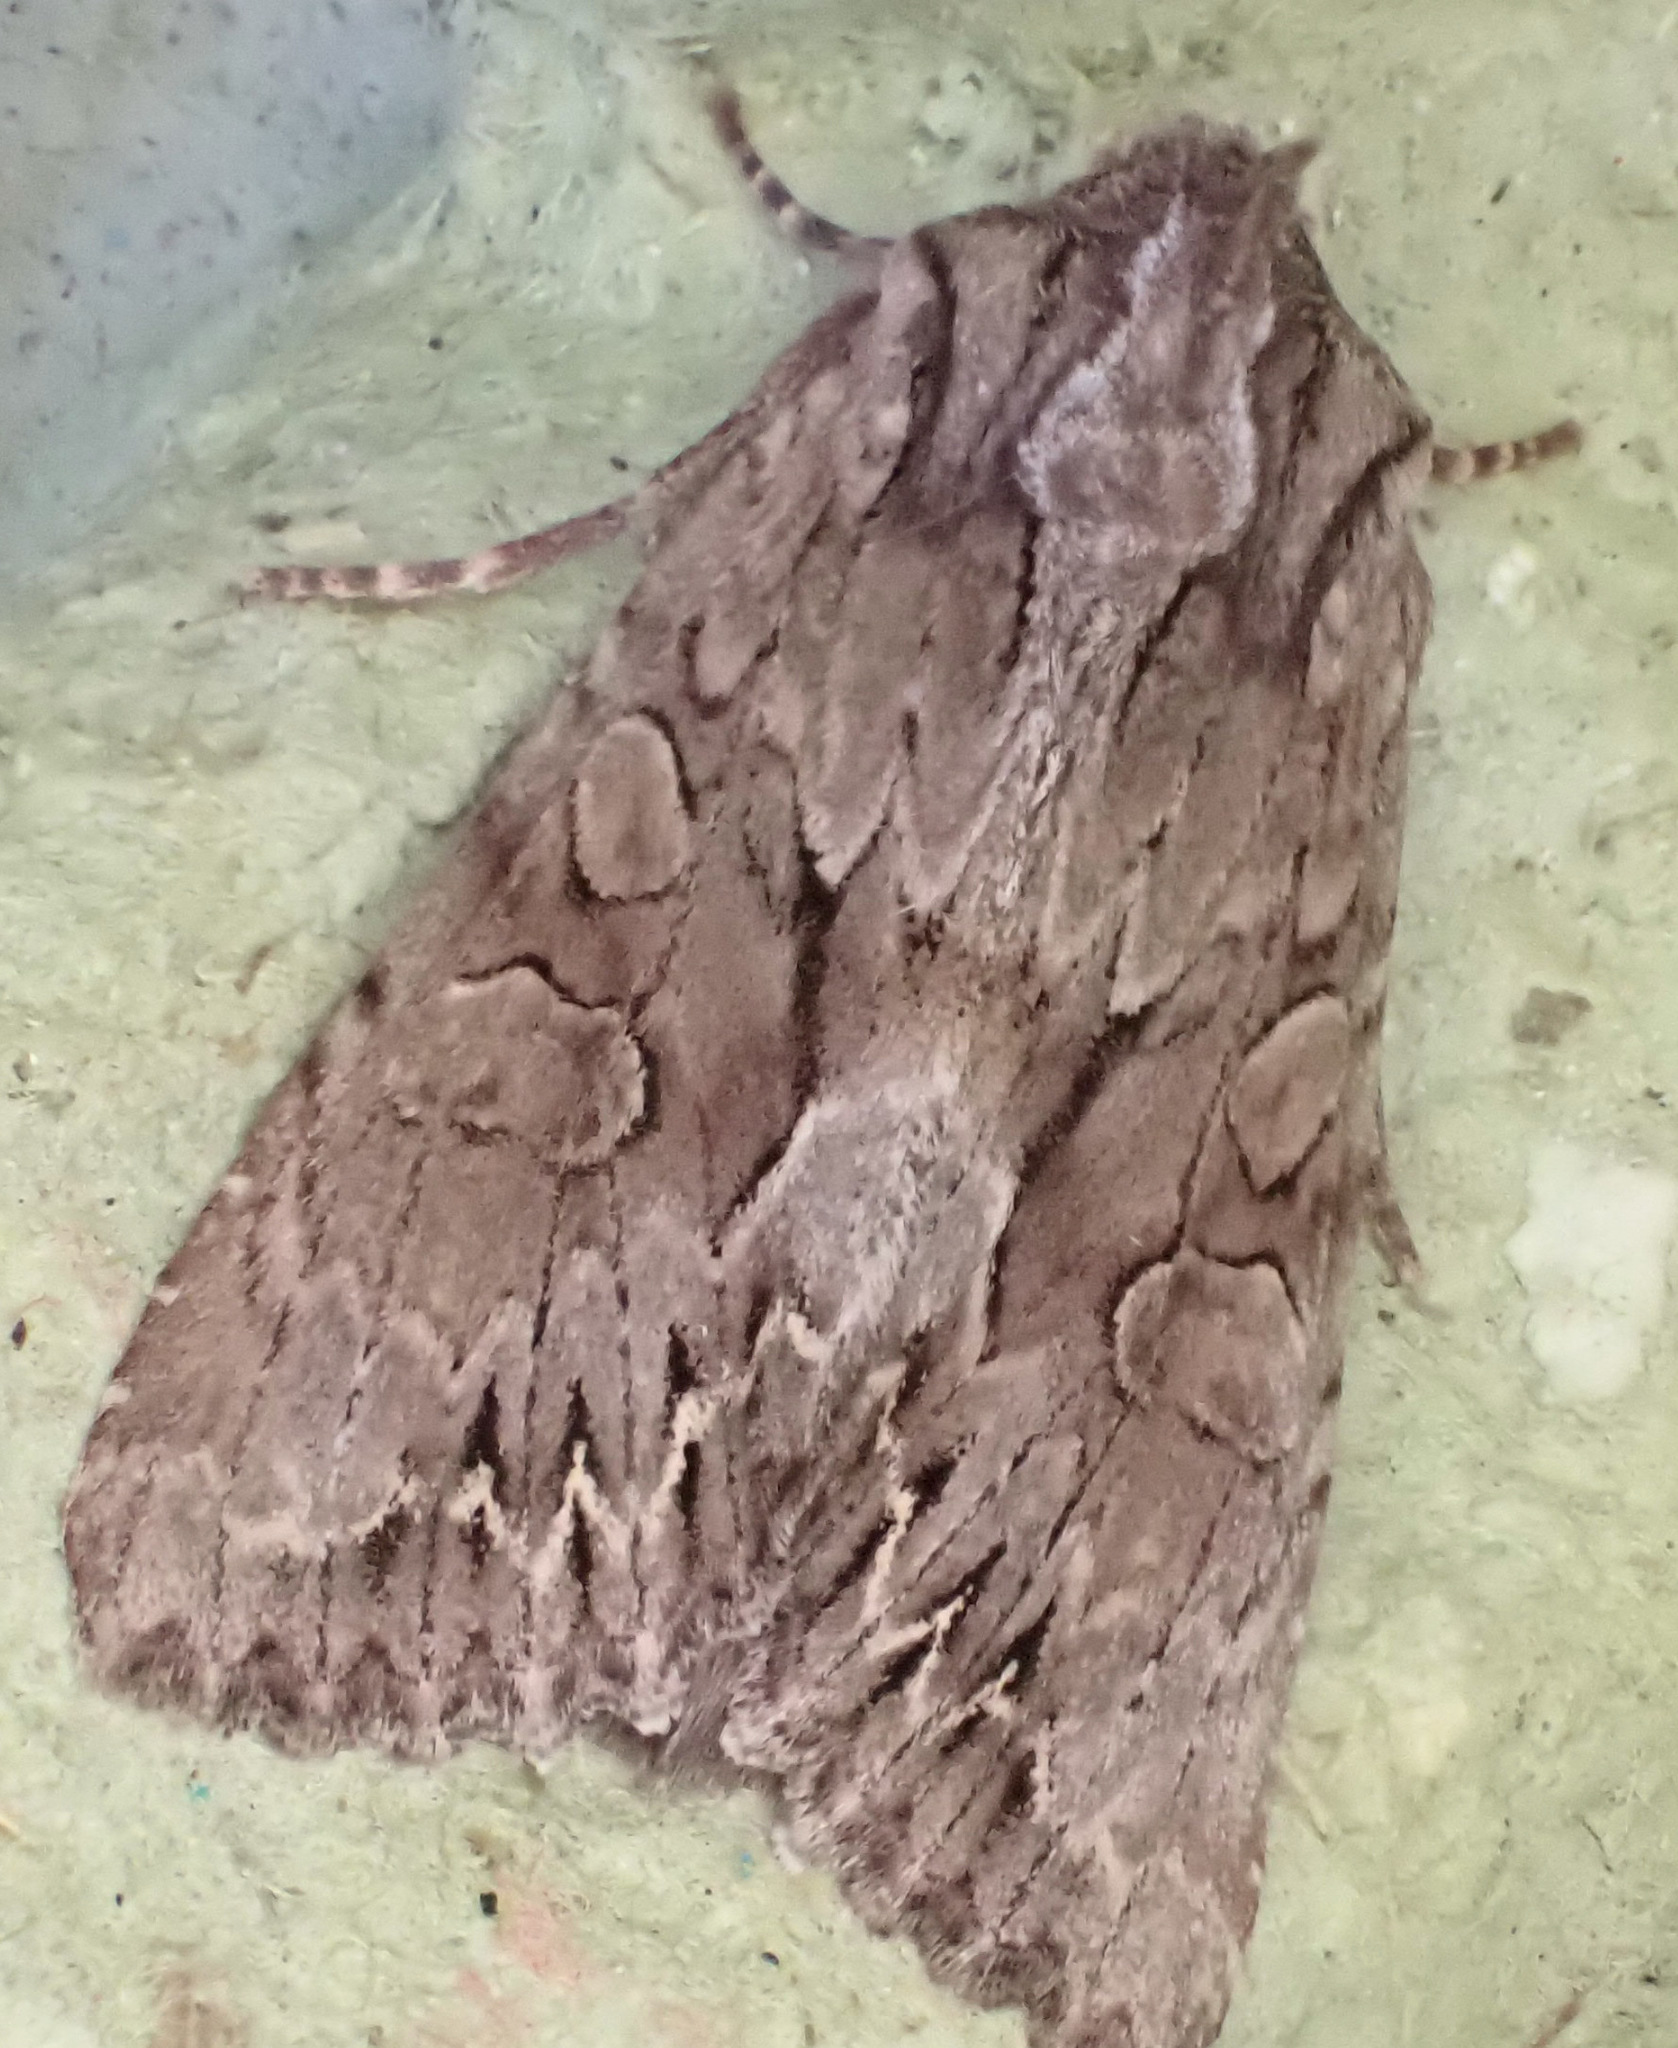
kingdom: Animalia
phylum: Arthropoda
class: Insecta
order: Lepidoptera
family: Noctuidae
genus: Apamea
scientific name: Apamea monoglypha
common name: Dark arches
